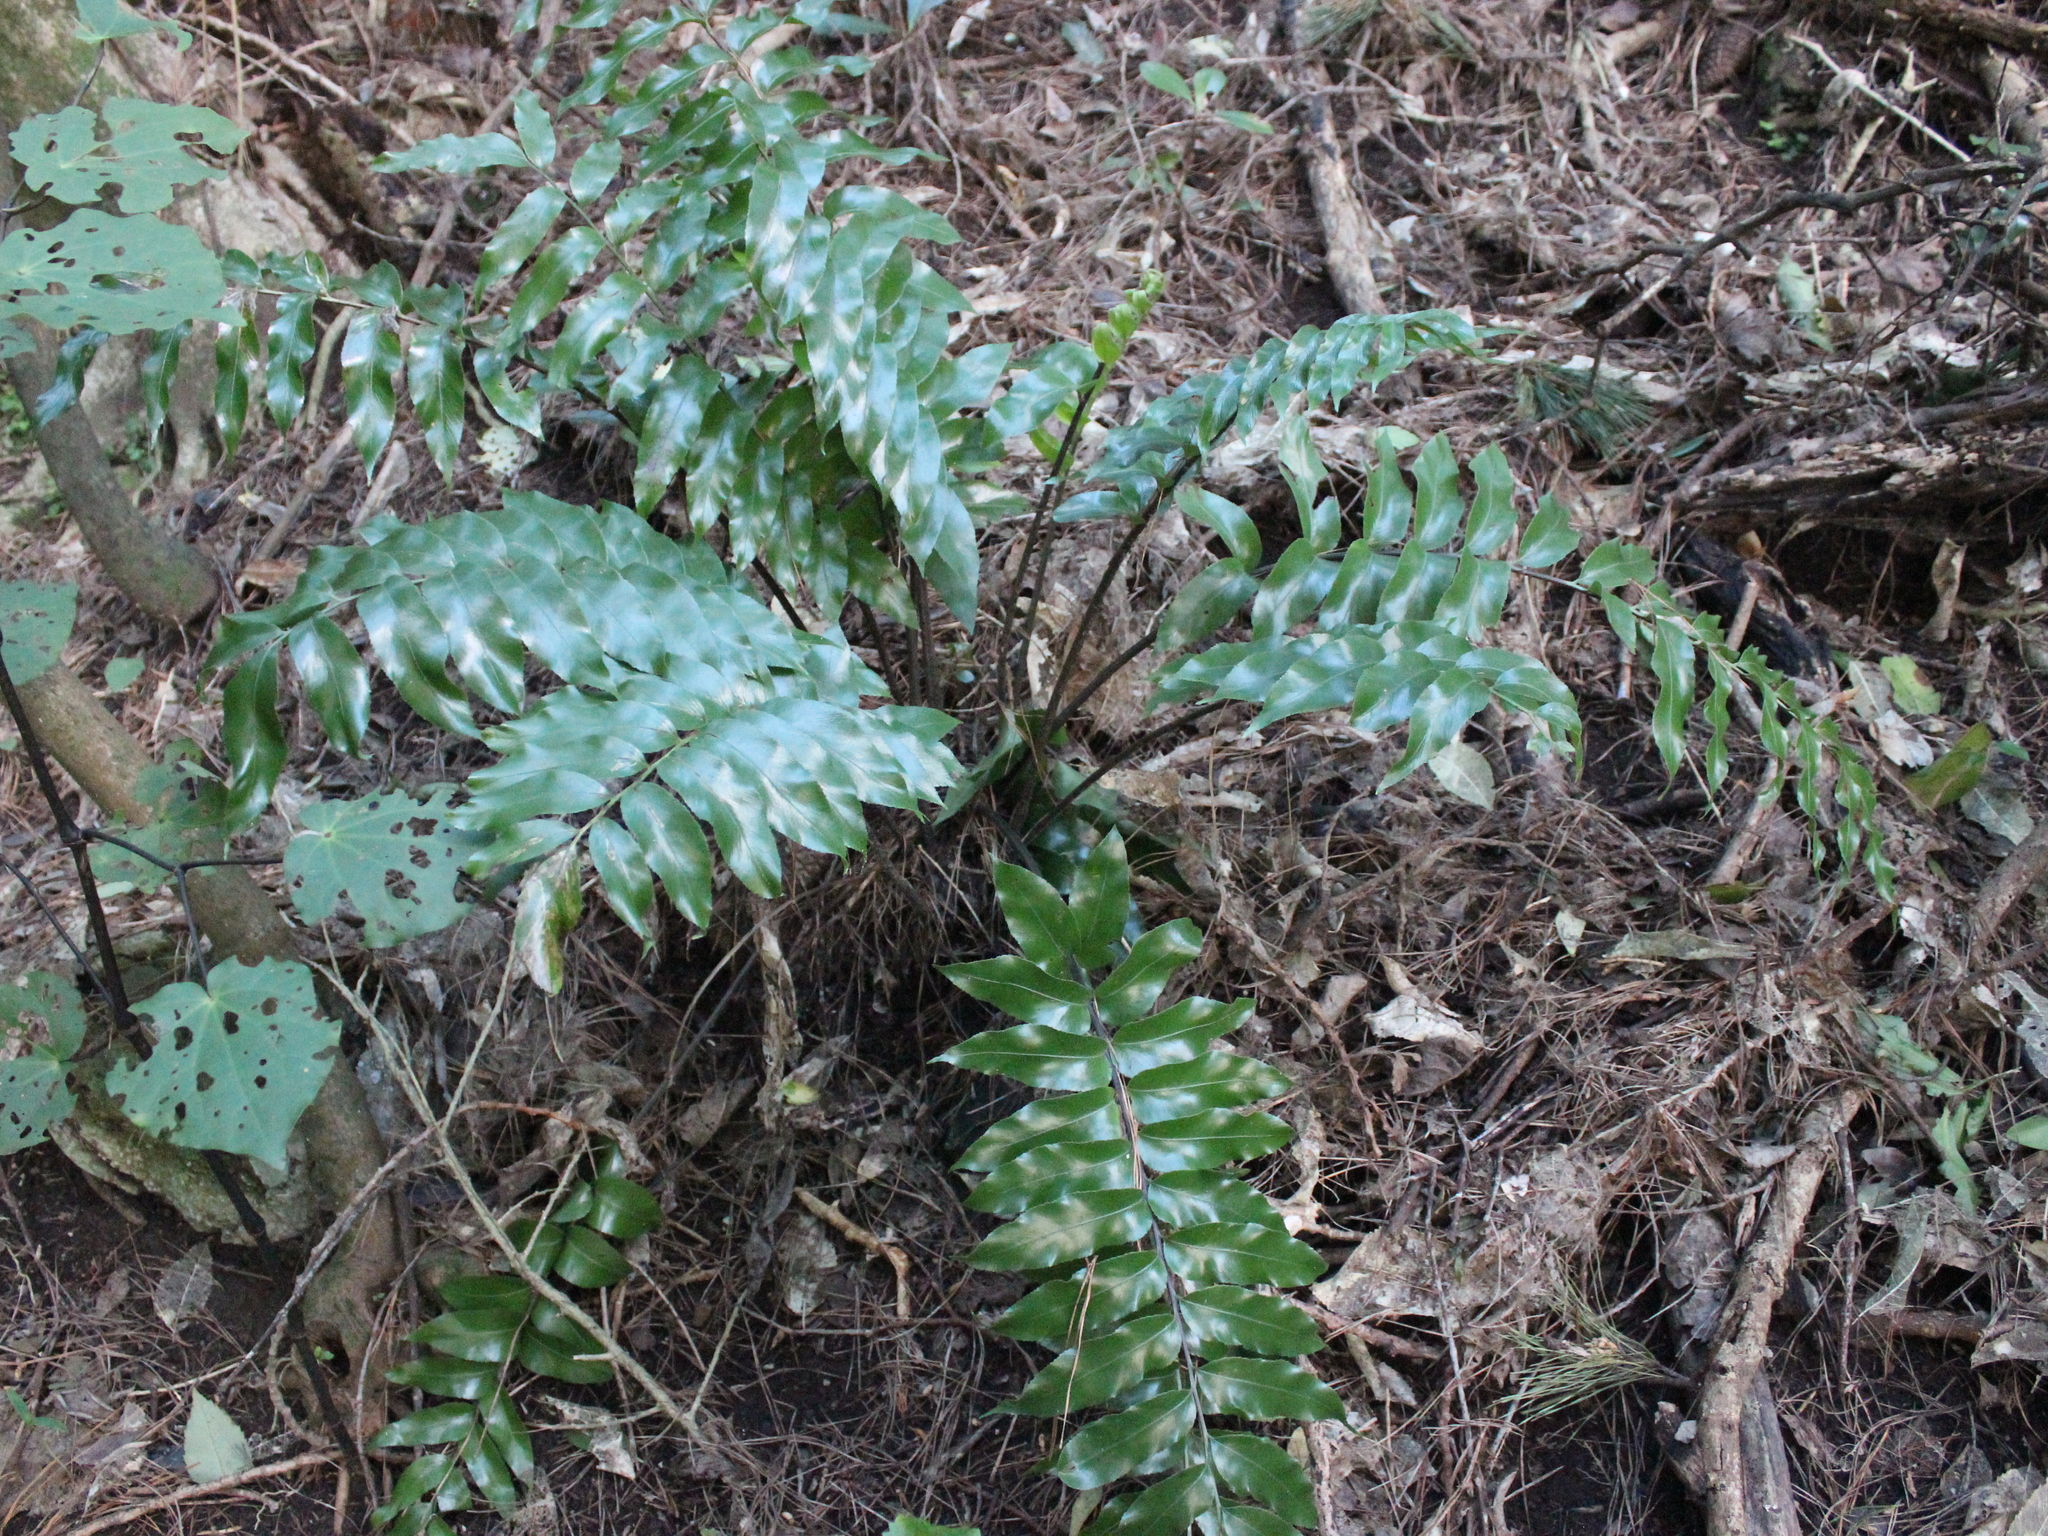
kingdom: Plantae
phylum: Tracheophyta
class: Polypodiopsida
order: Polypodiales
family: Aspleniaceae
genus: Asplenium
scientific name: Asplenium oblongifolium
